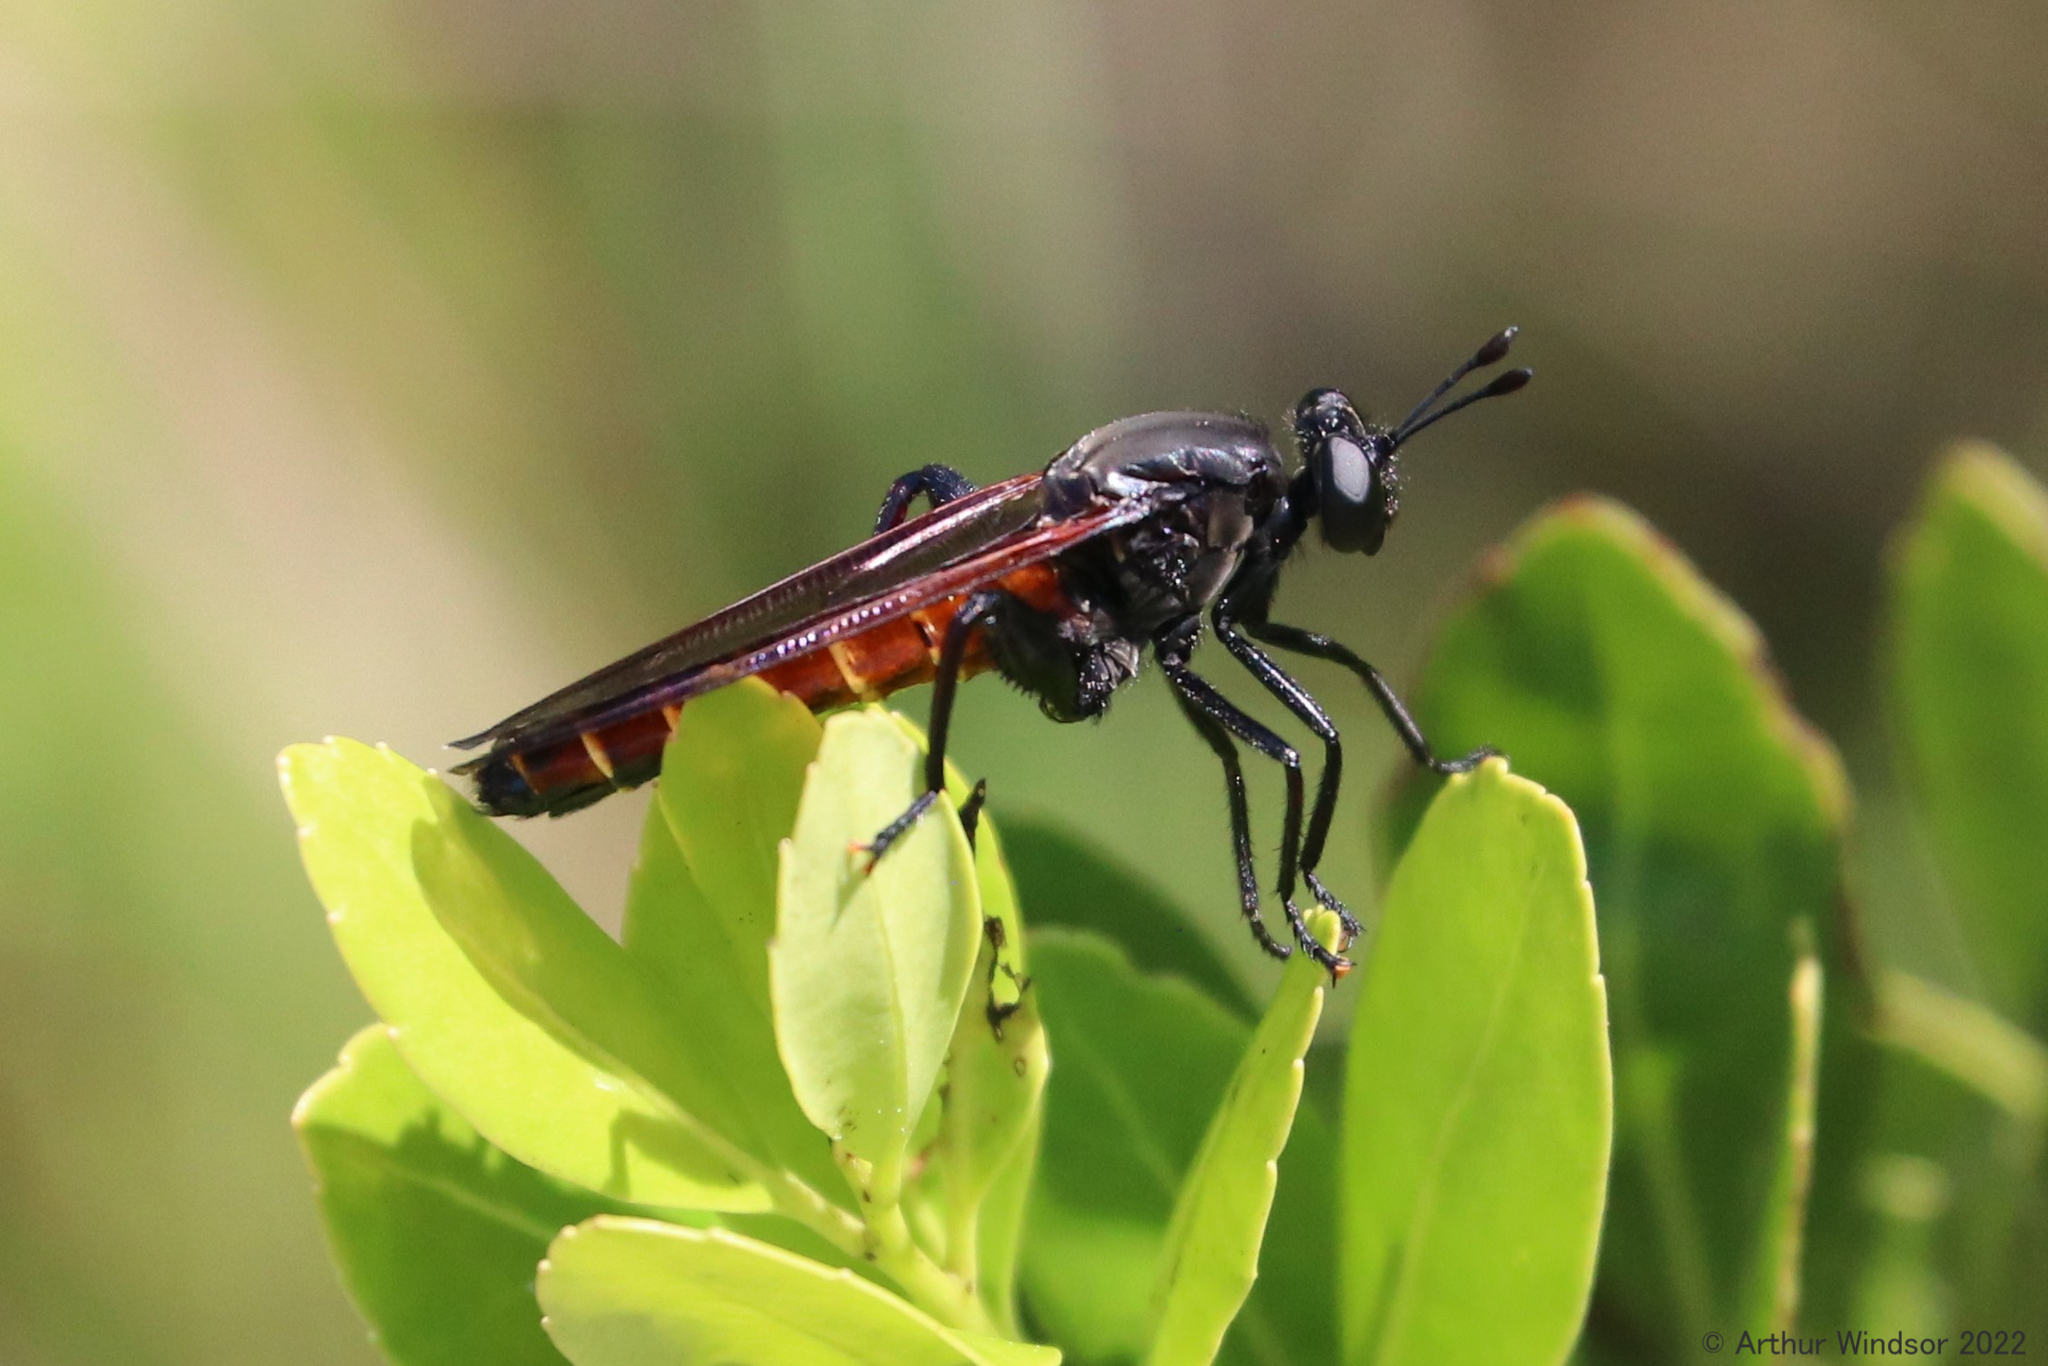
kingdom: Animalia
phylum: Arthropoda
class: Insecta
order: Diptera
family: Mydidae
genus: Mydas
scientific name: Mydas maculiventris
